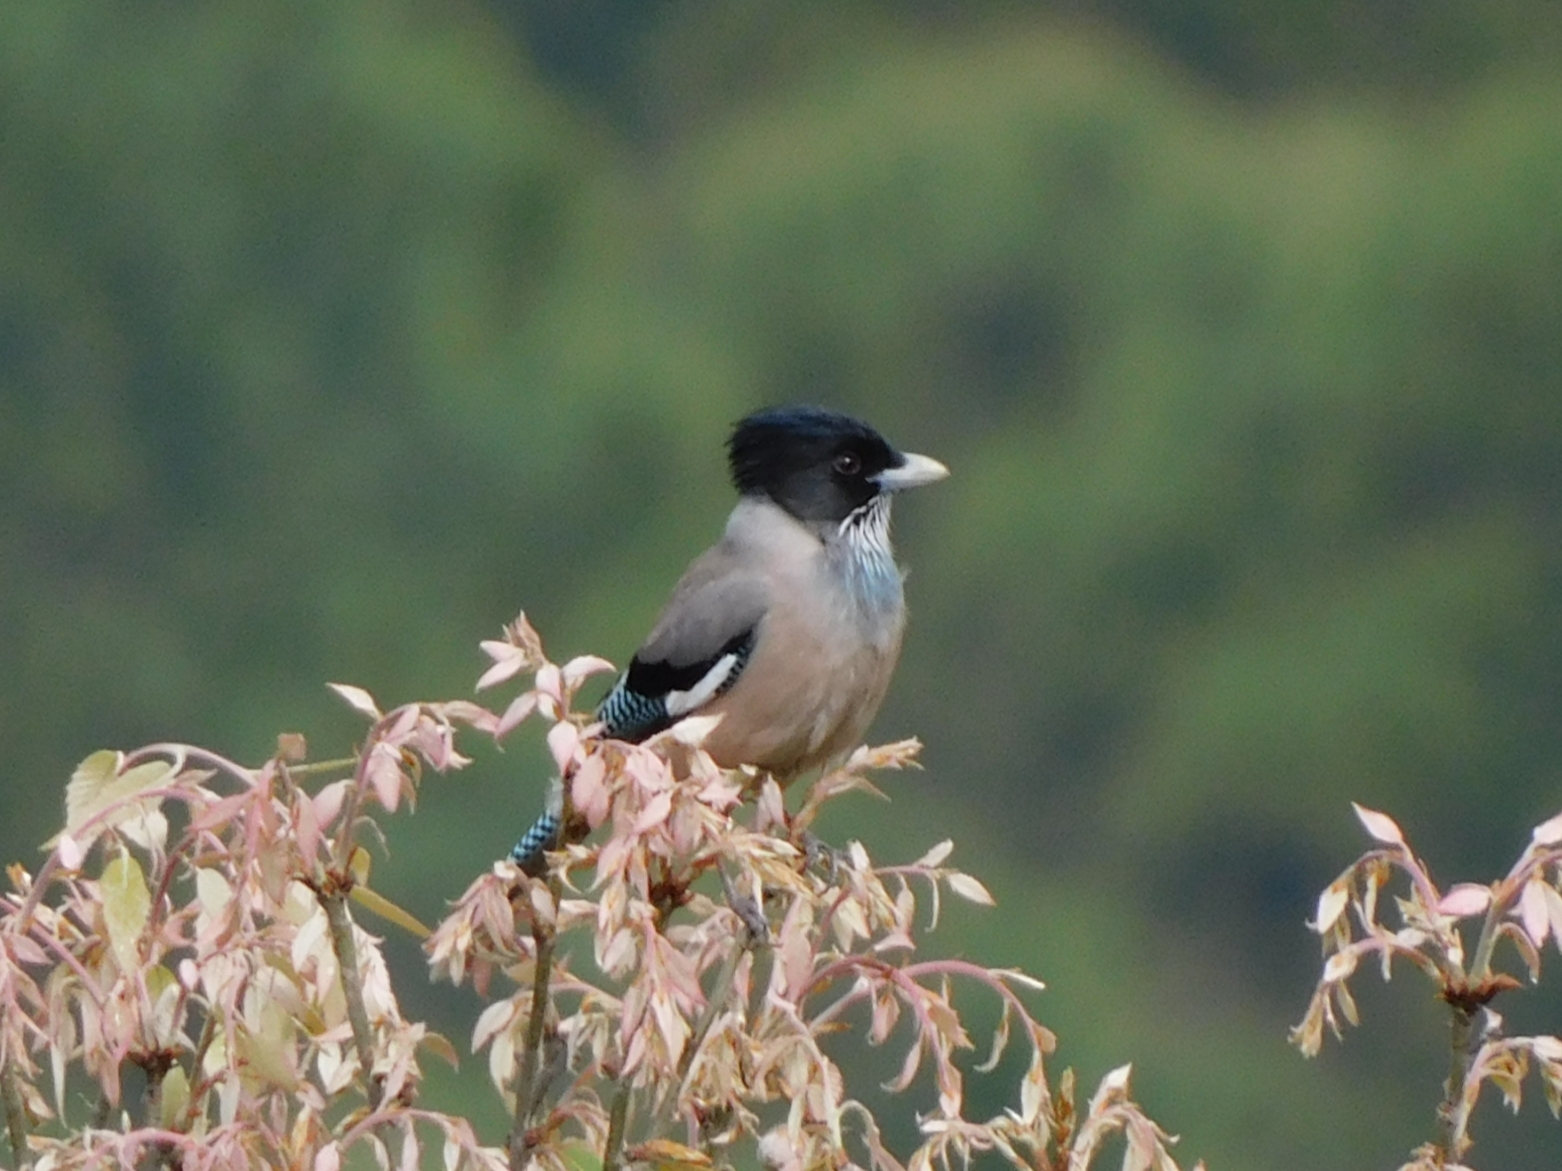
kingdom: Animalia
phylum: Chordata
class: Aves
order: Passeriformes
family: Corvidae
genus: Garrulus
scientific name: Garrulus lanceolatus
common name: Black-headed jay
